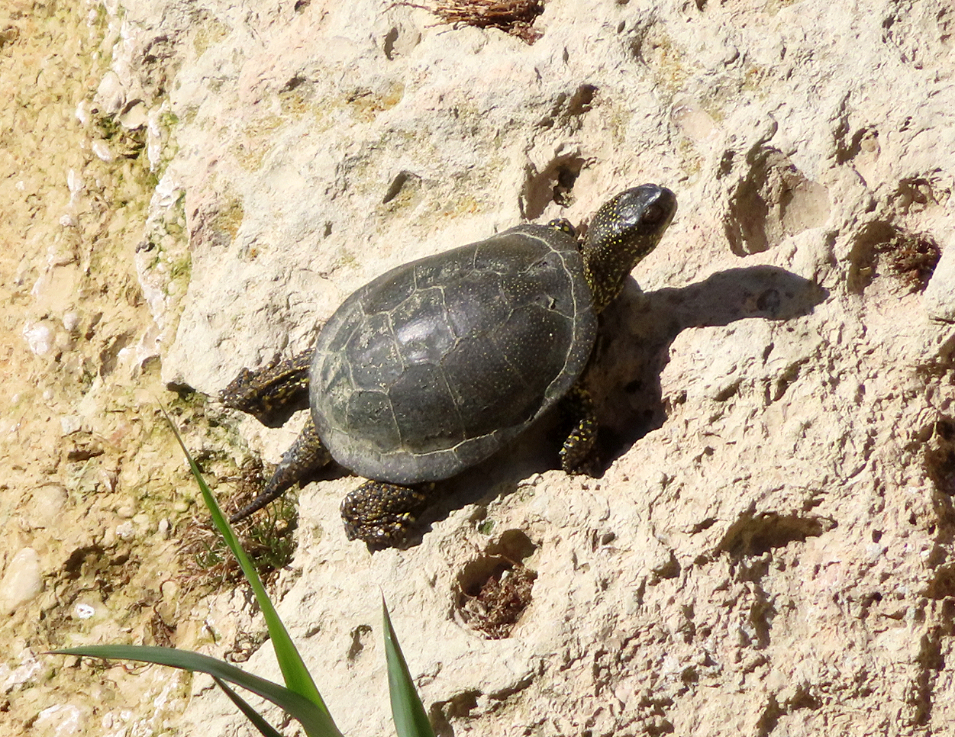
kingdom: Animalia
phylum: Chordata
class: Testudines
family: Emydidae
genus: Emys
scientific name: Emys orbicularis
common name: European pond turtle
